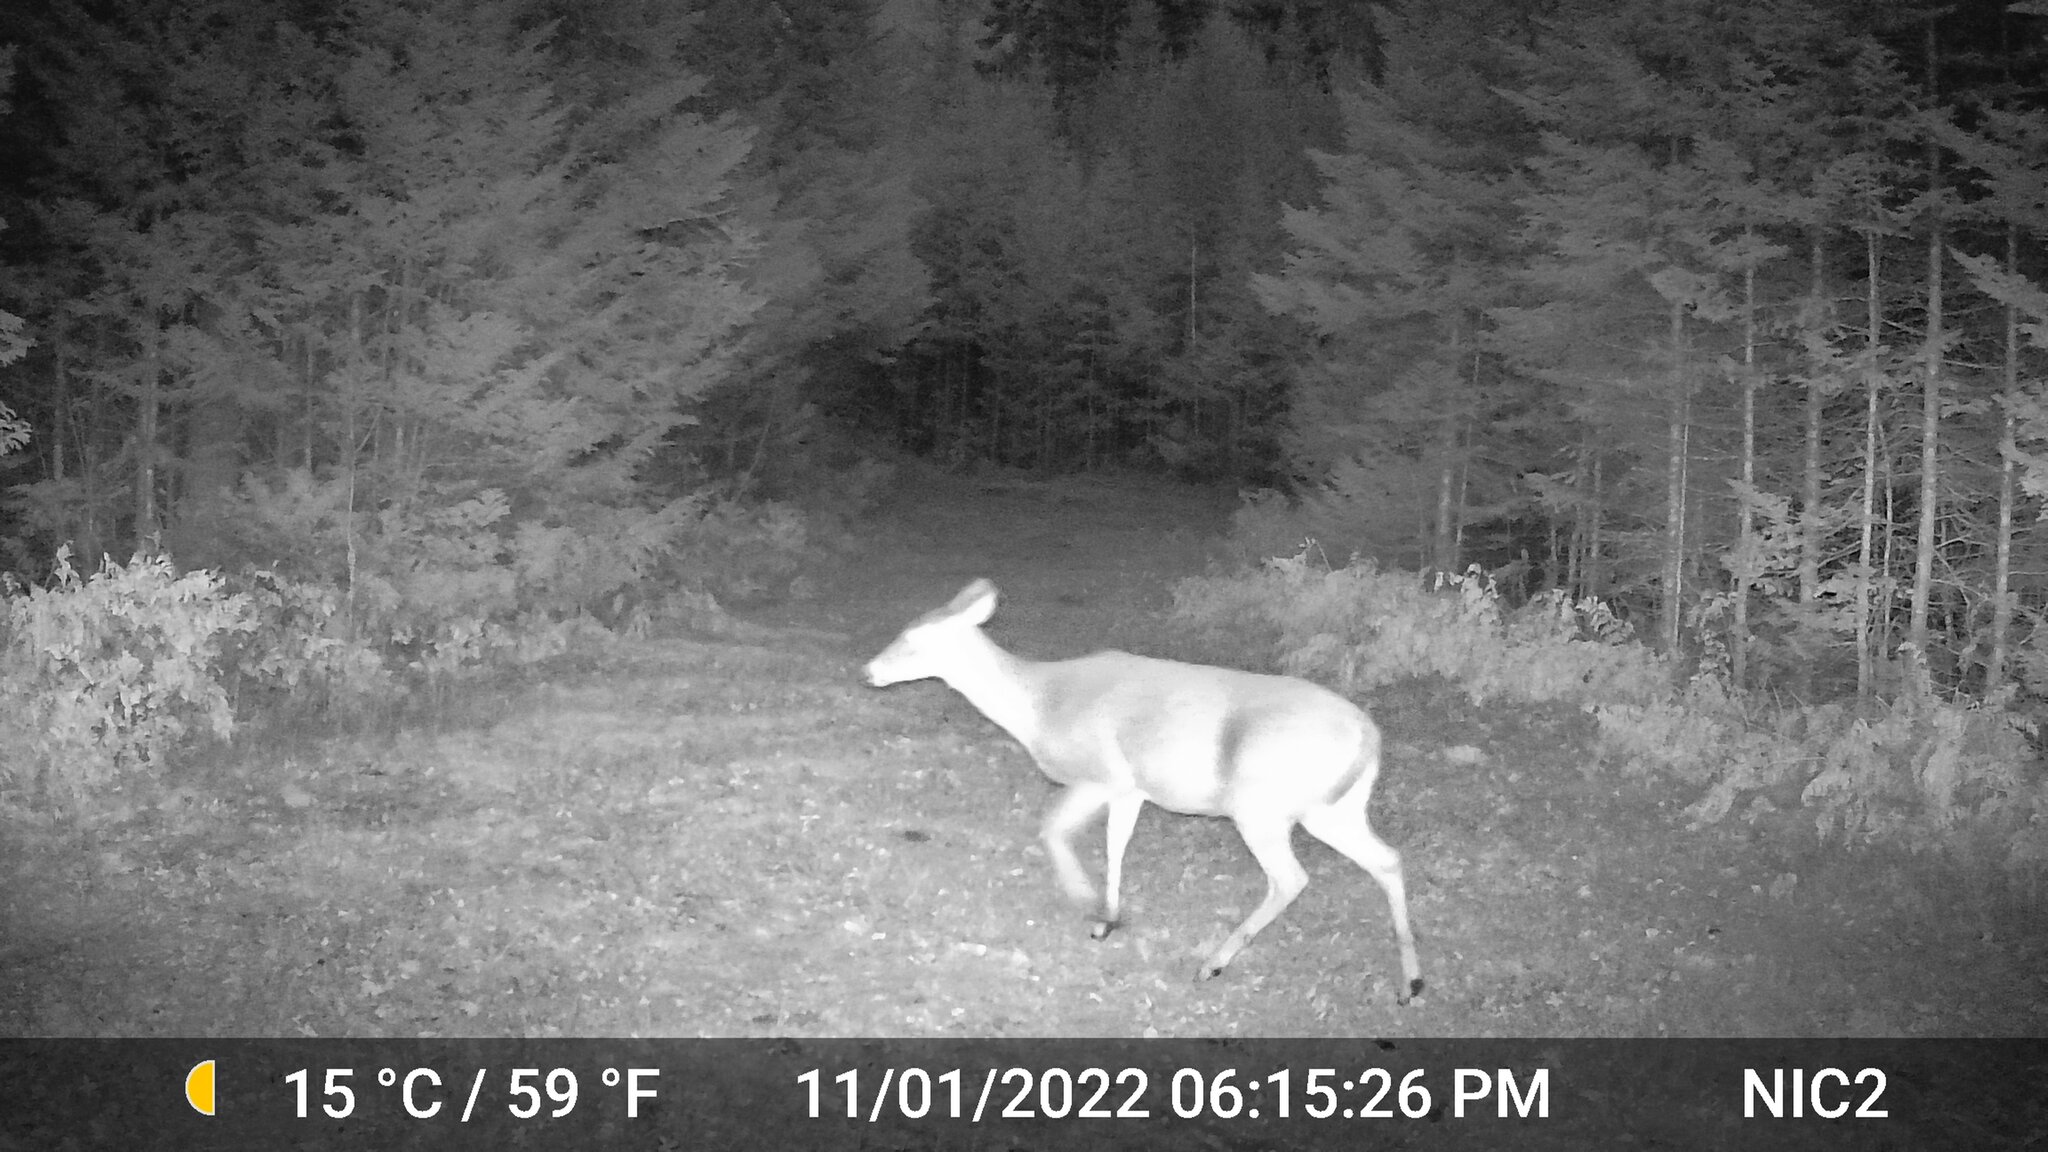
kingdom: Animalia
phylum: Chordata
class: Mammalia
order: Artiodactyla
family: Cervidae
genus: Odocoileus
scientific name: Odocoileus virginianus
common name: White-tailed deer
